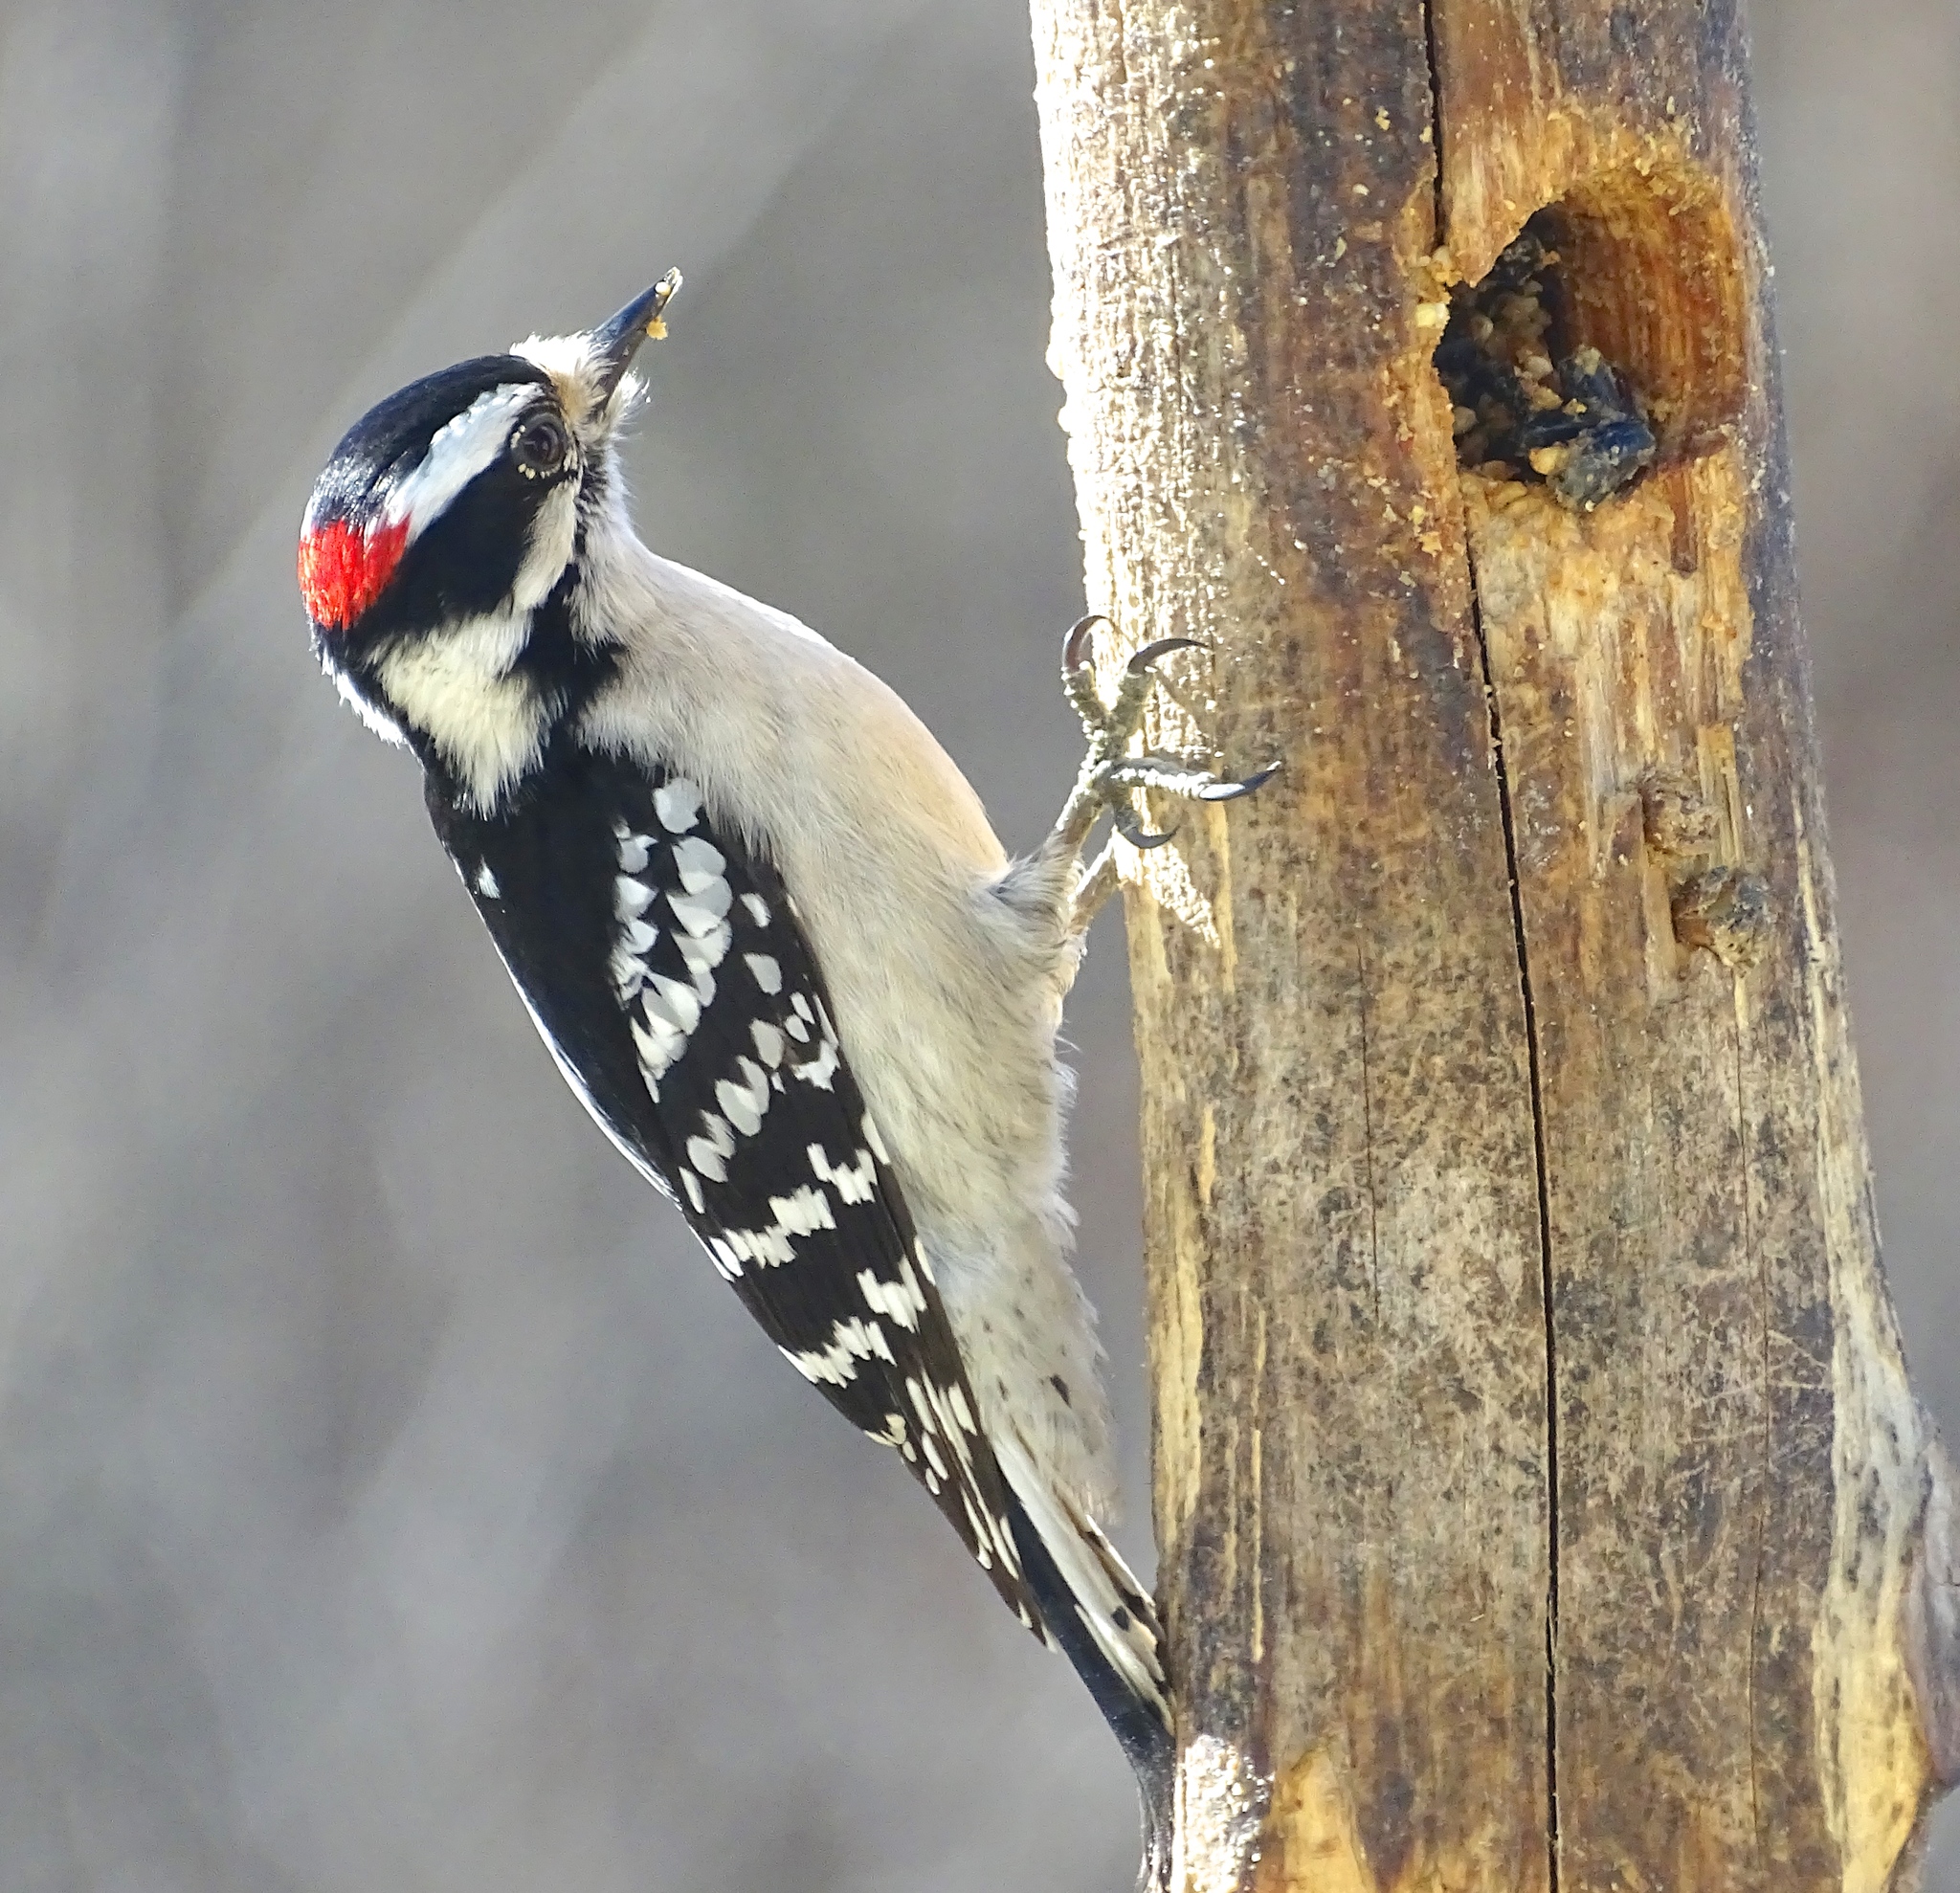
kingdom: Animalia
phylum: Chordata
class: Aves
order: Piciformes
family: Picidae
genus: Dryobates
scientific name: Dryobates pubescens
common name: Downy woodpecker
